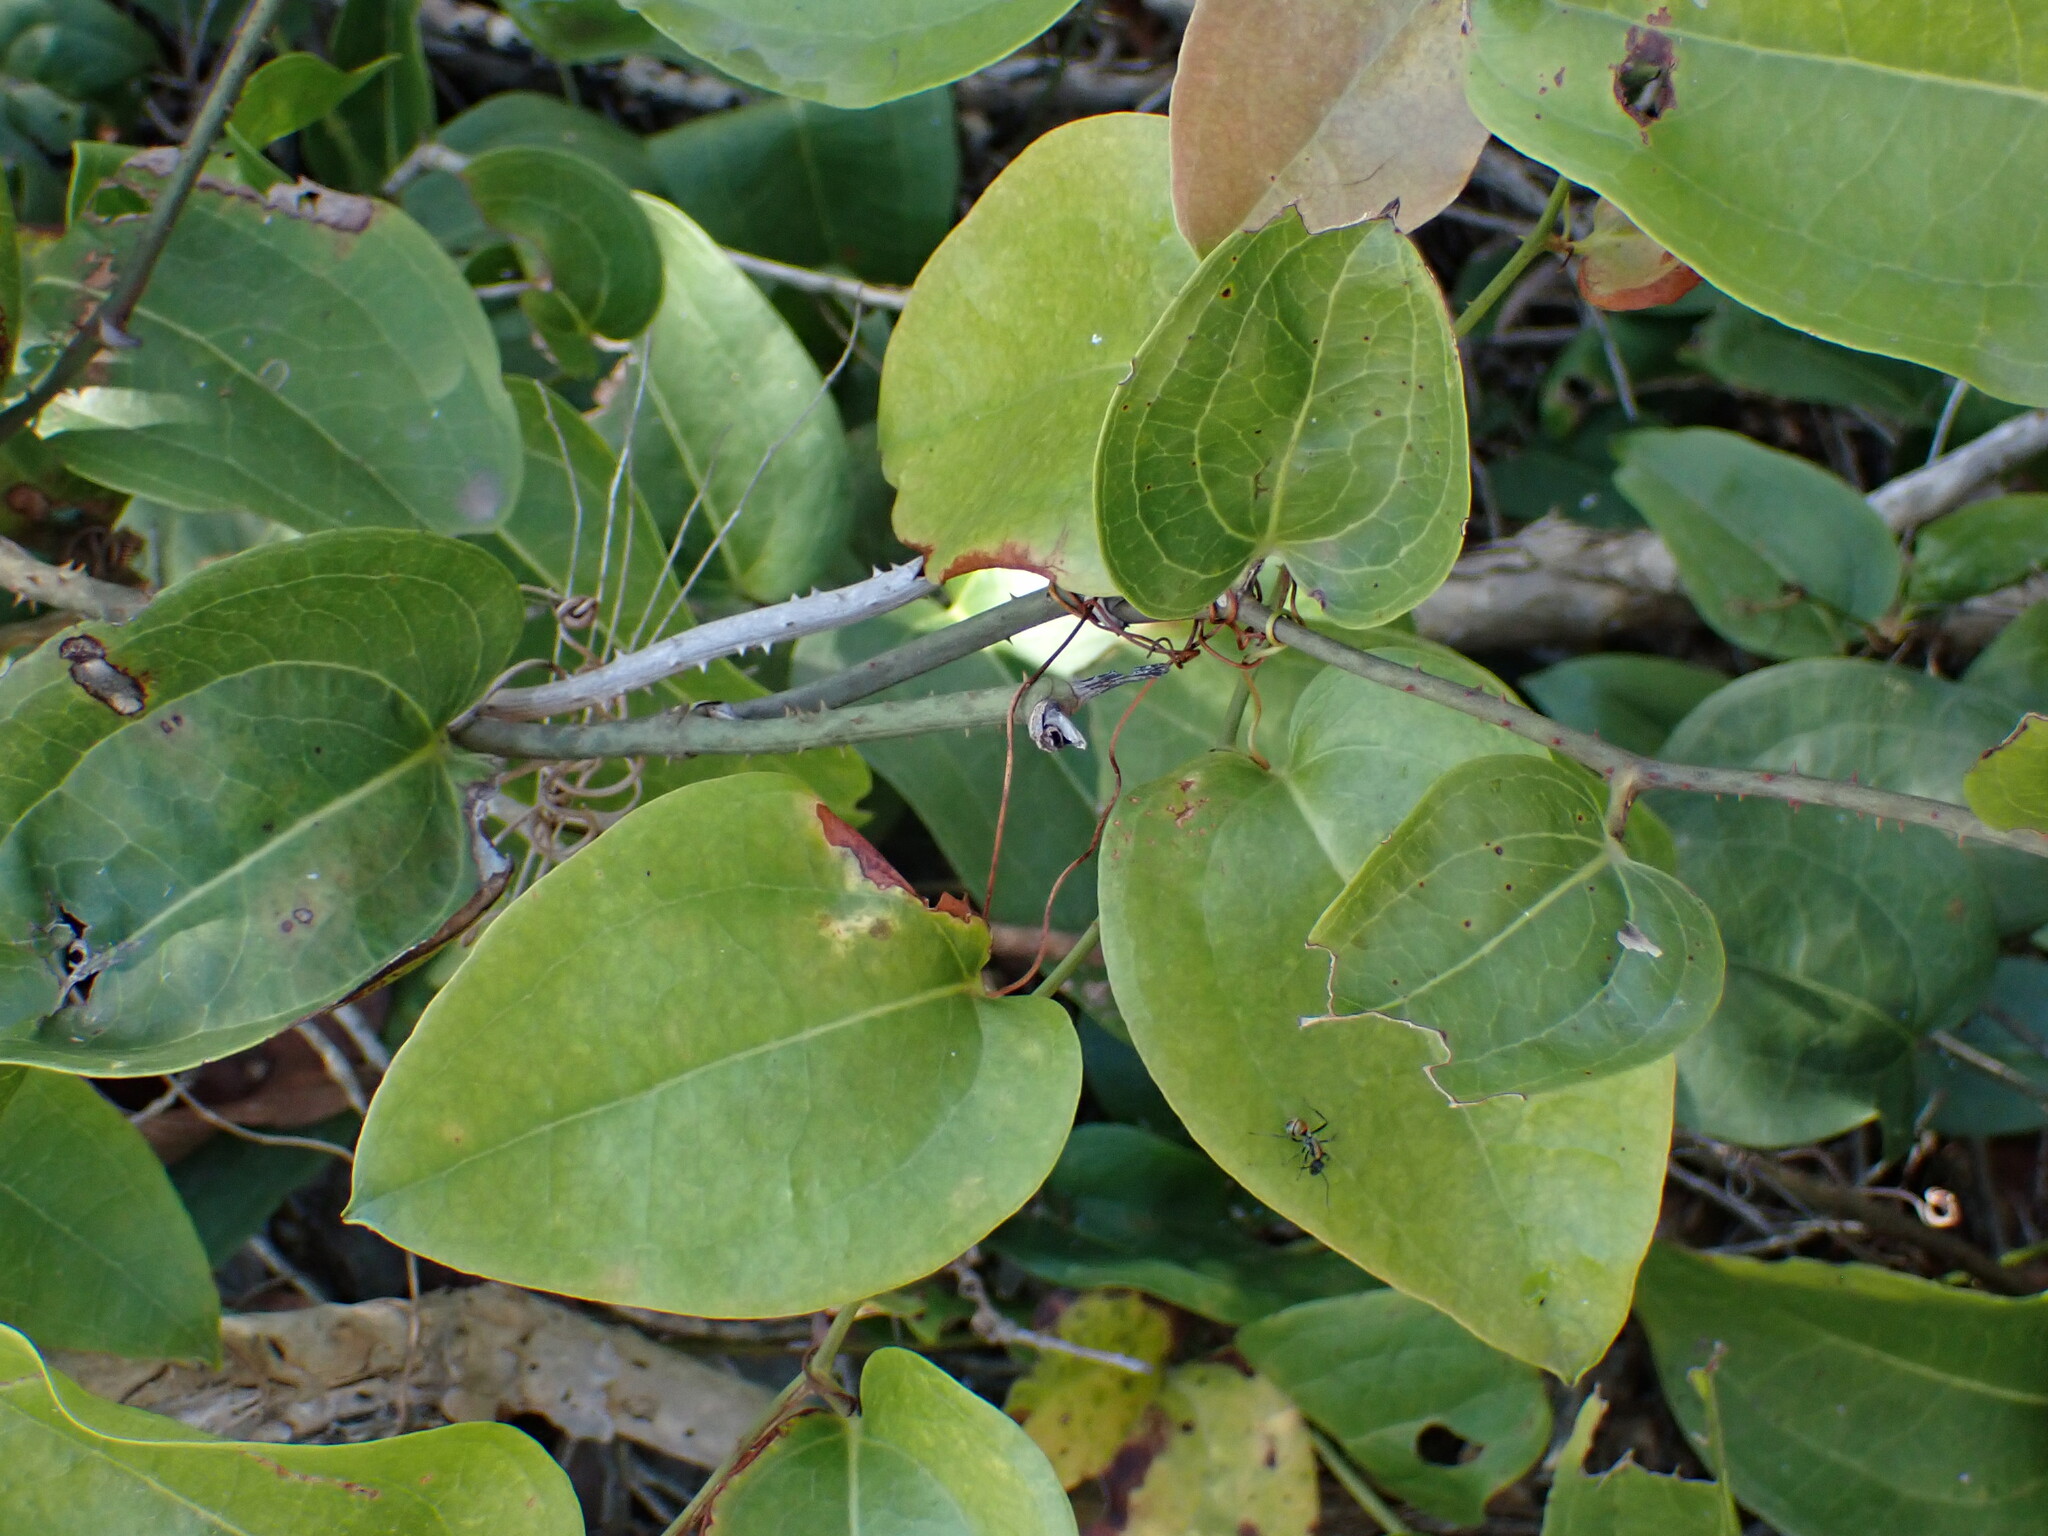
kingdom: Plantae
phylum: Tracheophyta
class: Liliopsida
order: Liliales
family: Smilacaceae
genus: Smilax
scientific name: Smilax australis
